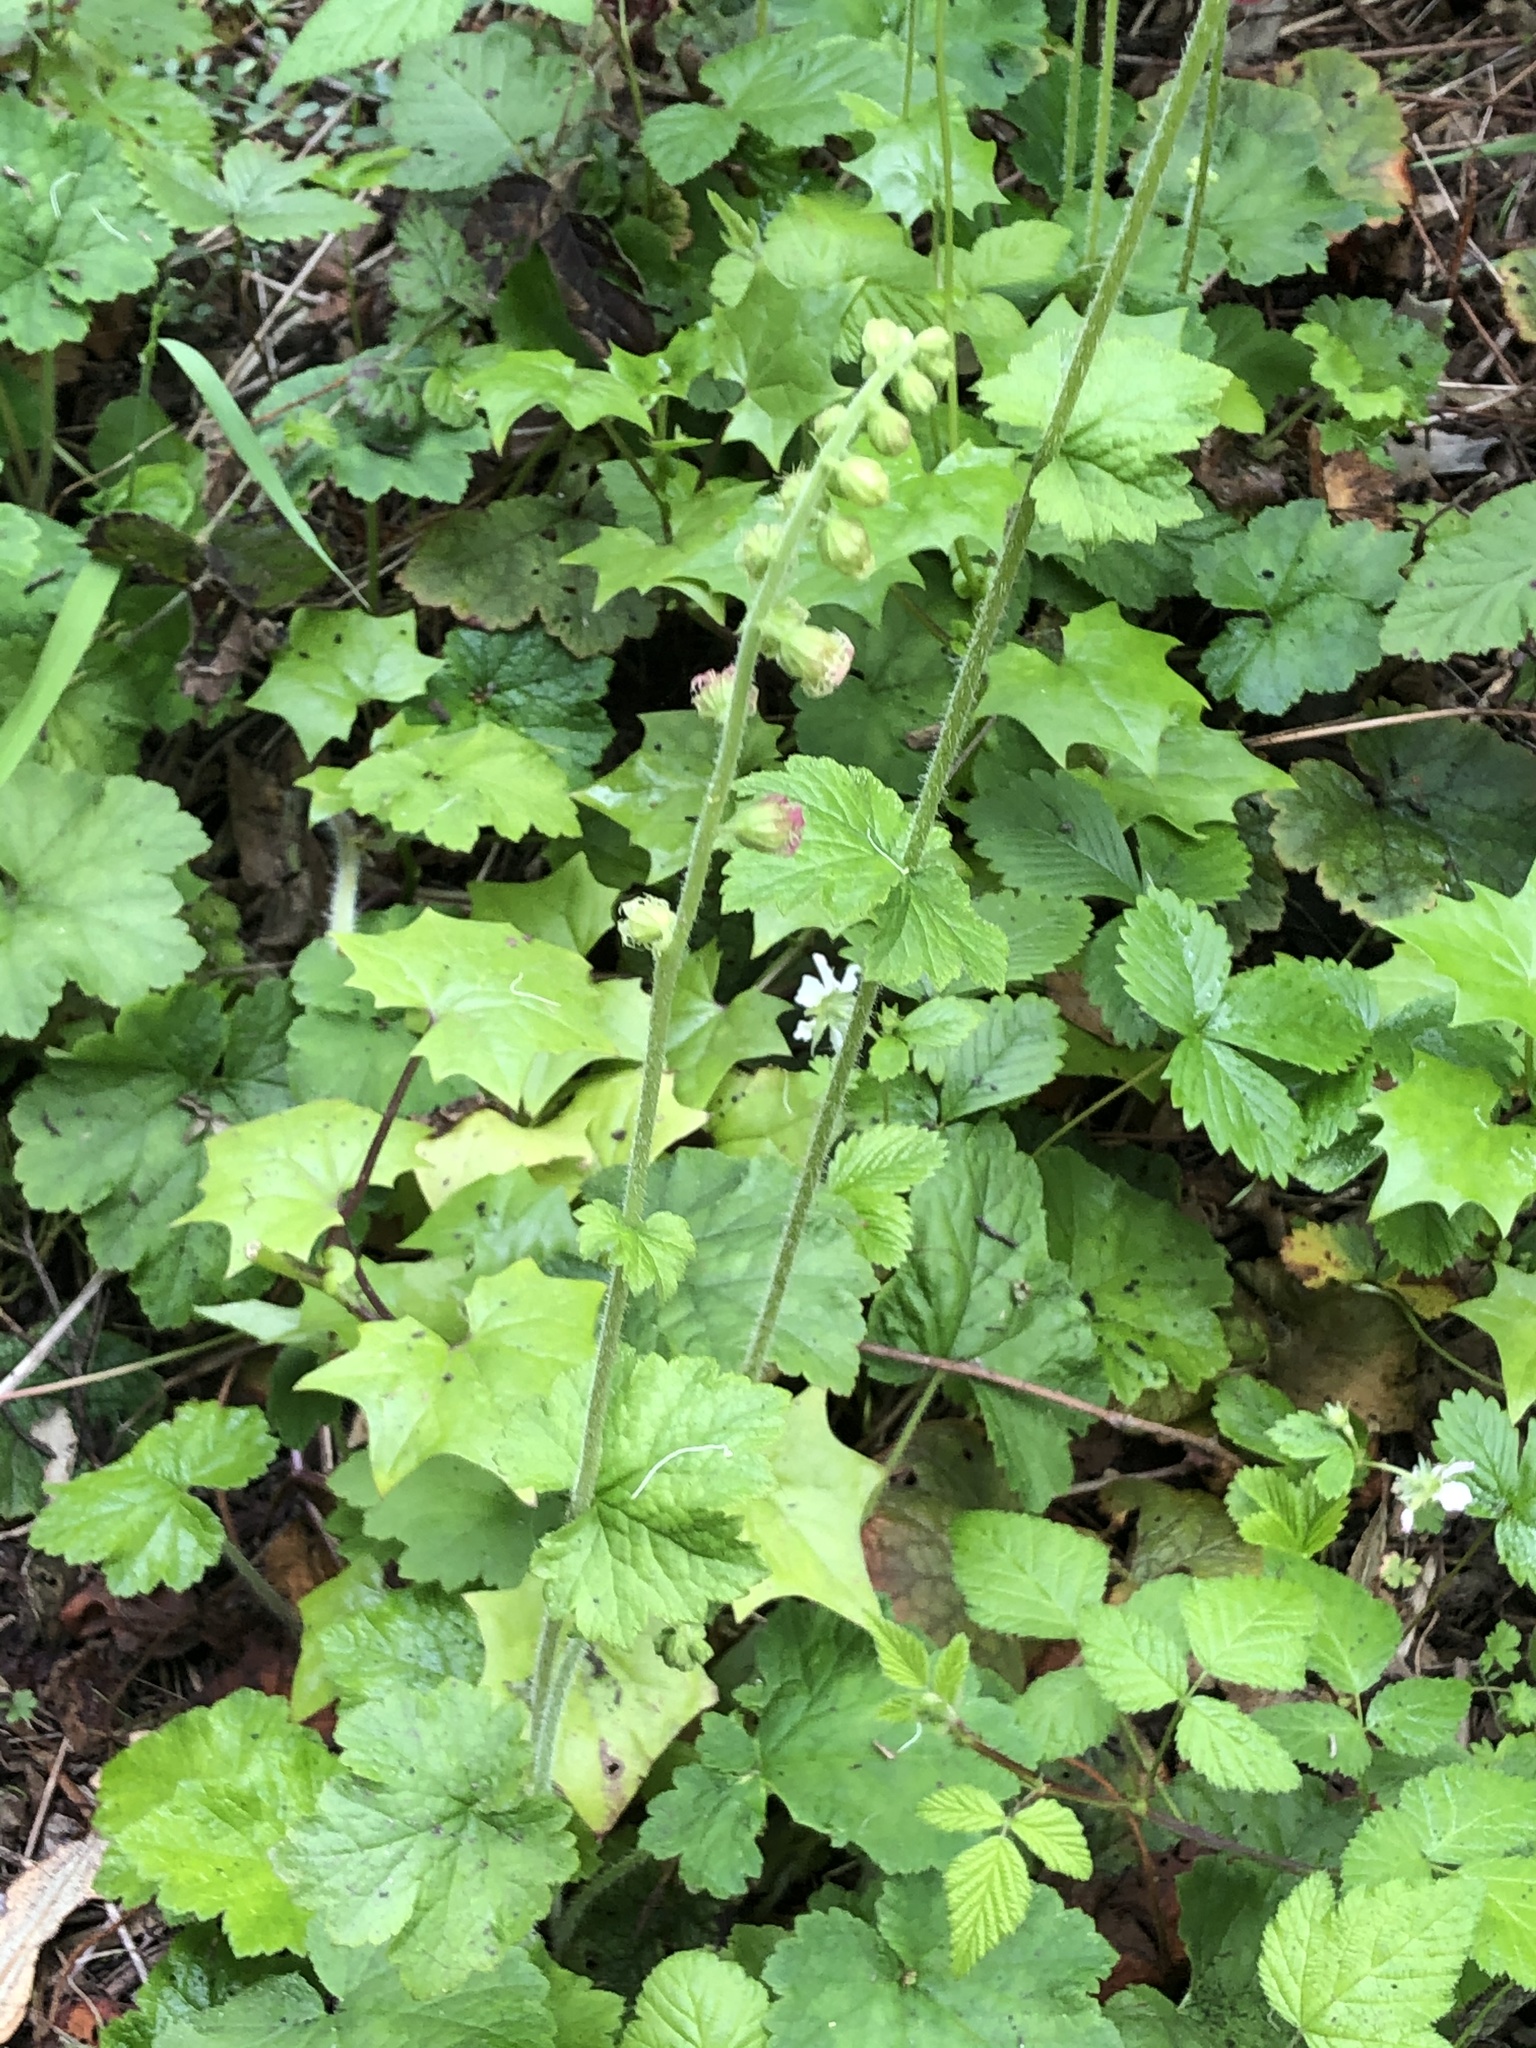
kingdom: Plantae
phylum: Tracheophyta
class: Magnoliopsida
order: Saxifragales
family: Saxifragaceae
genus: Tellima
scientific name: Tellima grandiflora
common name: Fringecups
